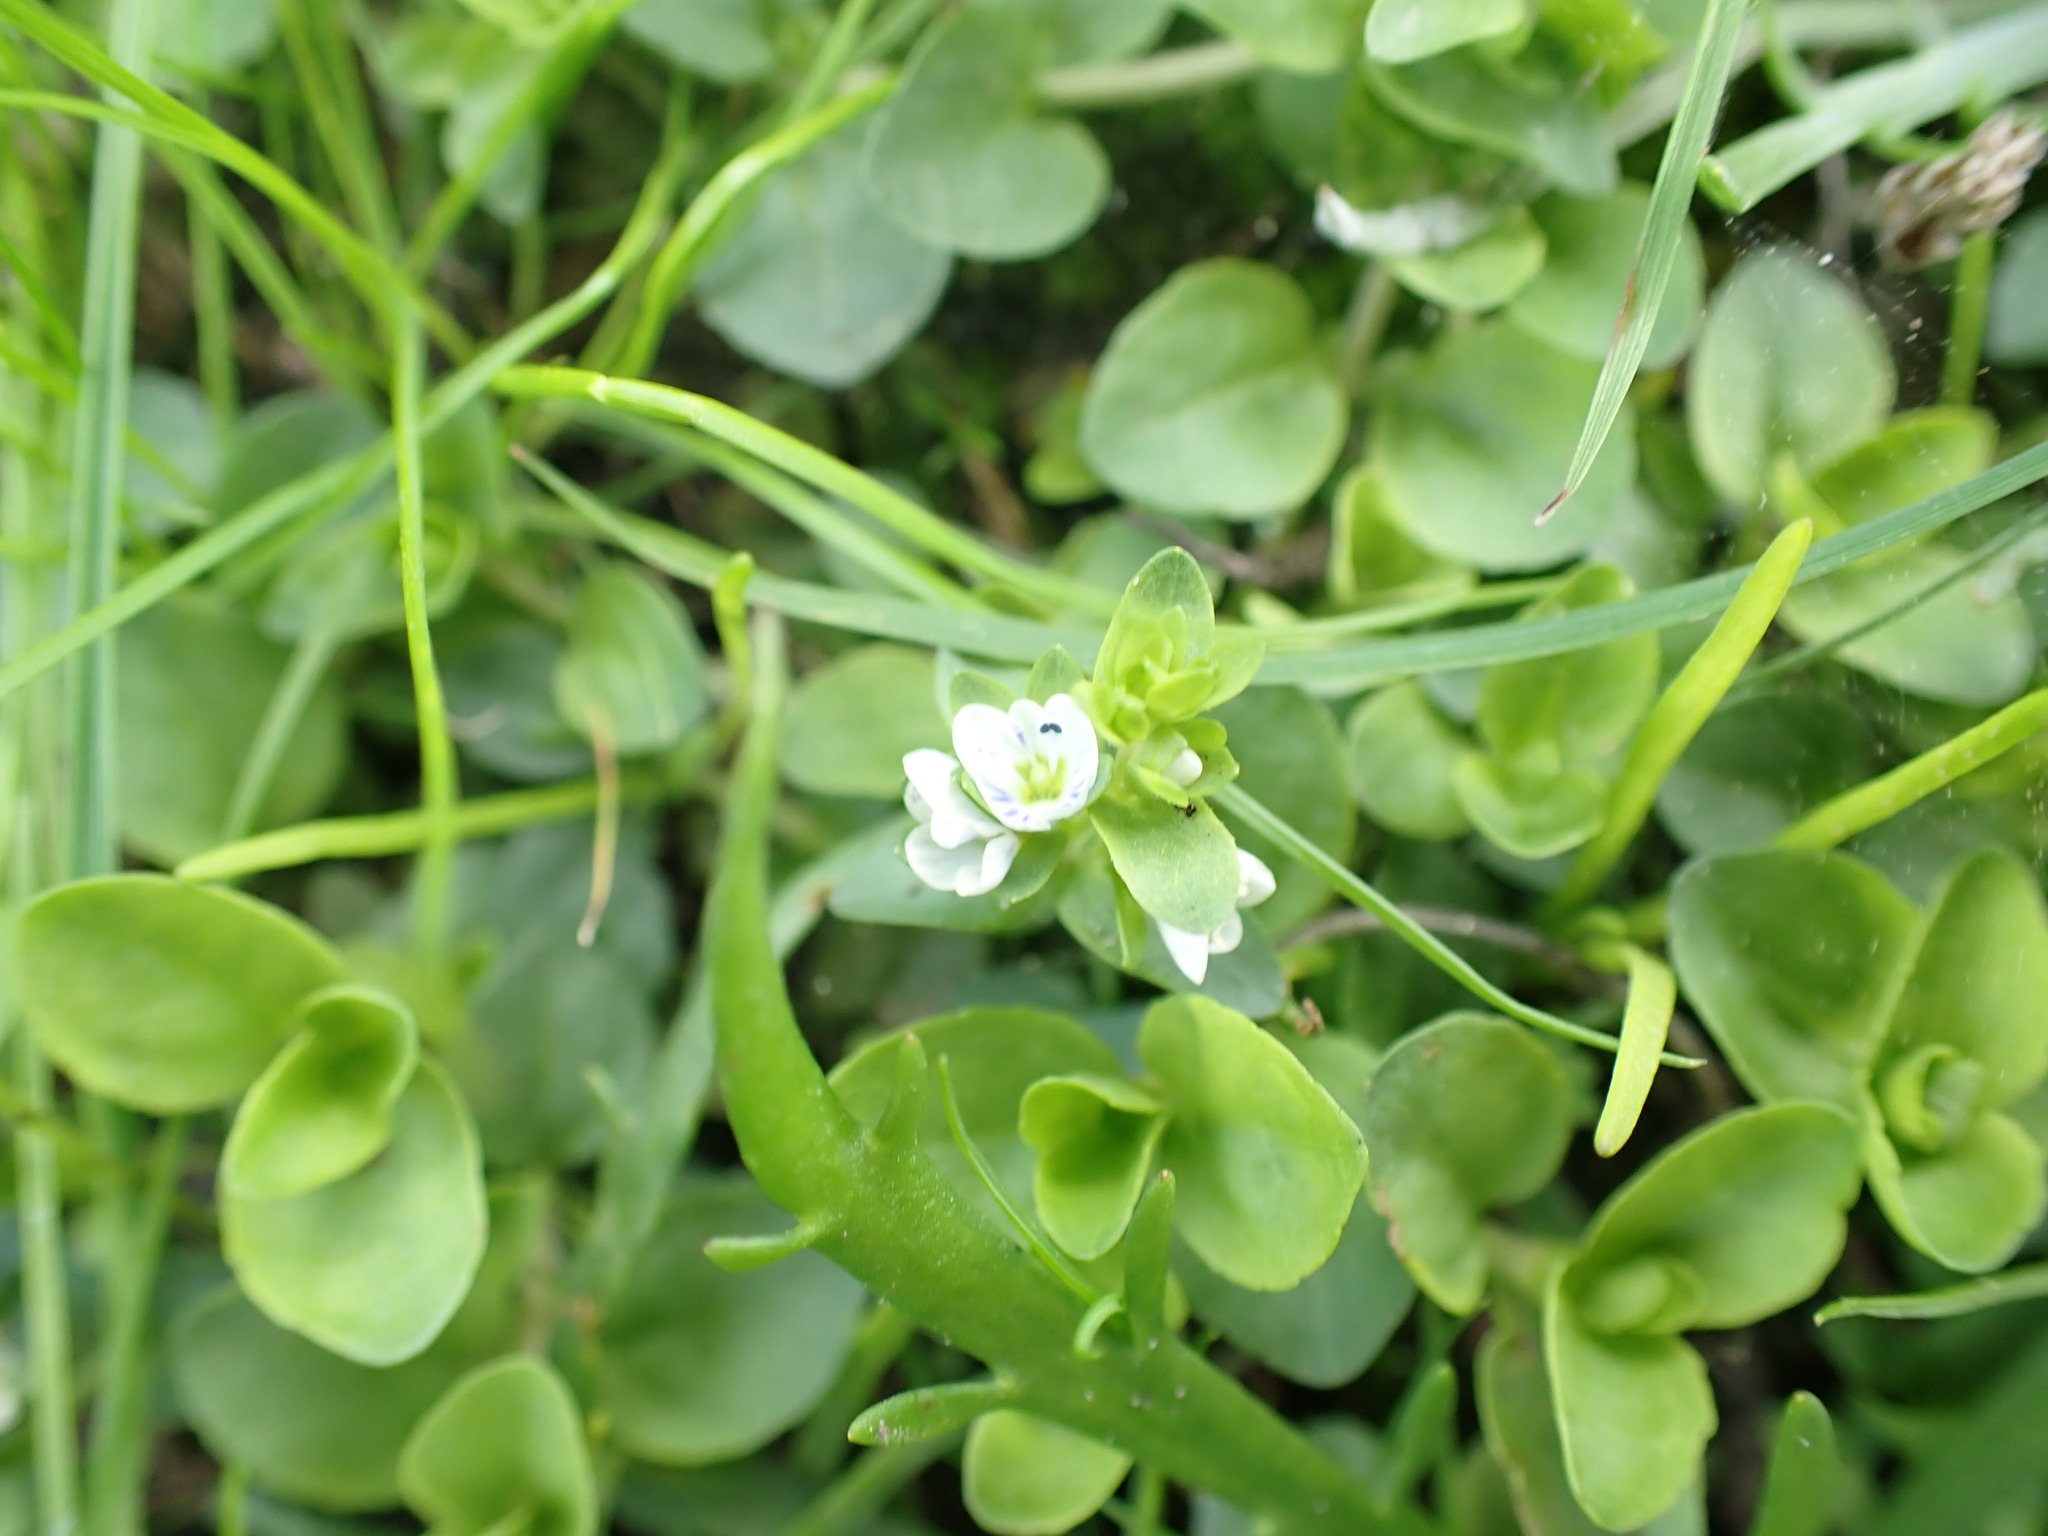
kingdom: Plantae
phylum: Tracheophyta
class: Magnoliopsida
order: Lamiales
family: Plantaginaceae
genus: Veronica
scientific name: Veronica serpyllifolia
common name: Thyme-leaved speedwell
